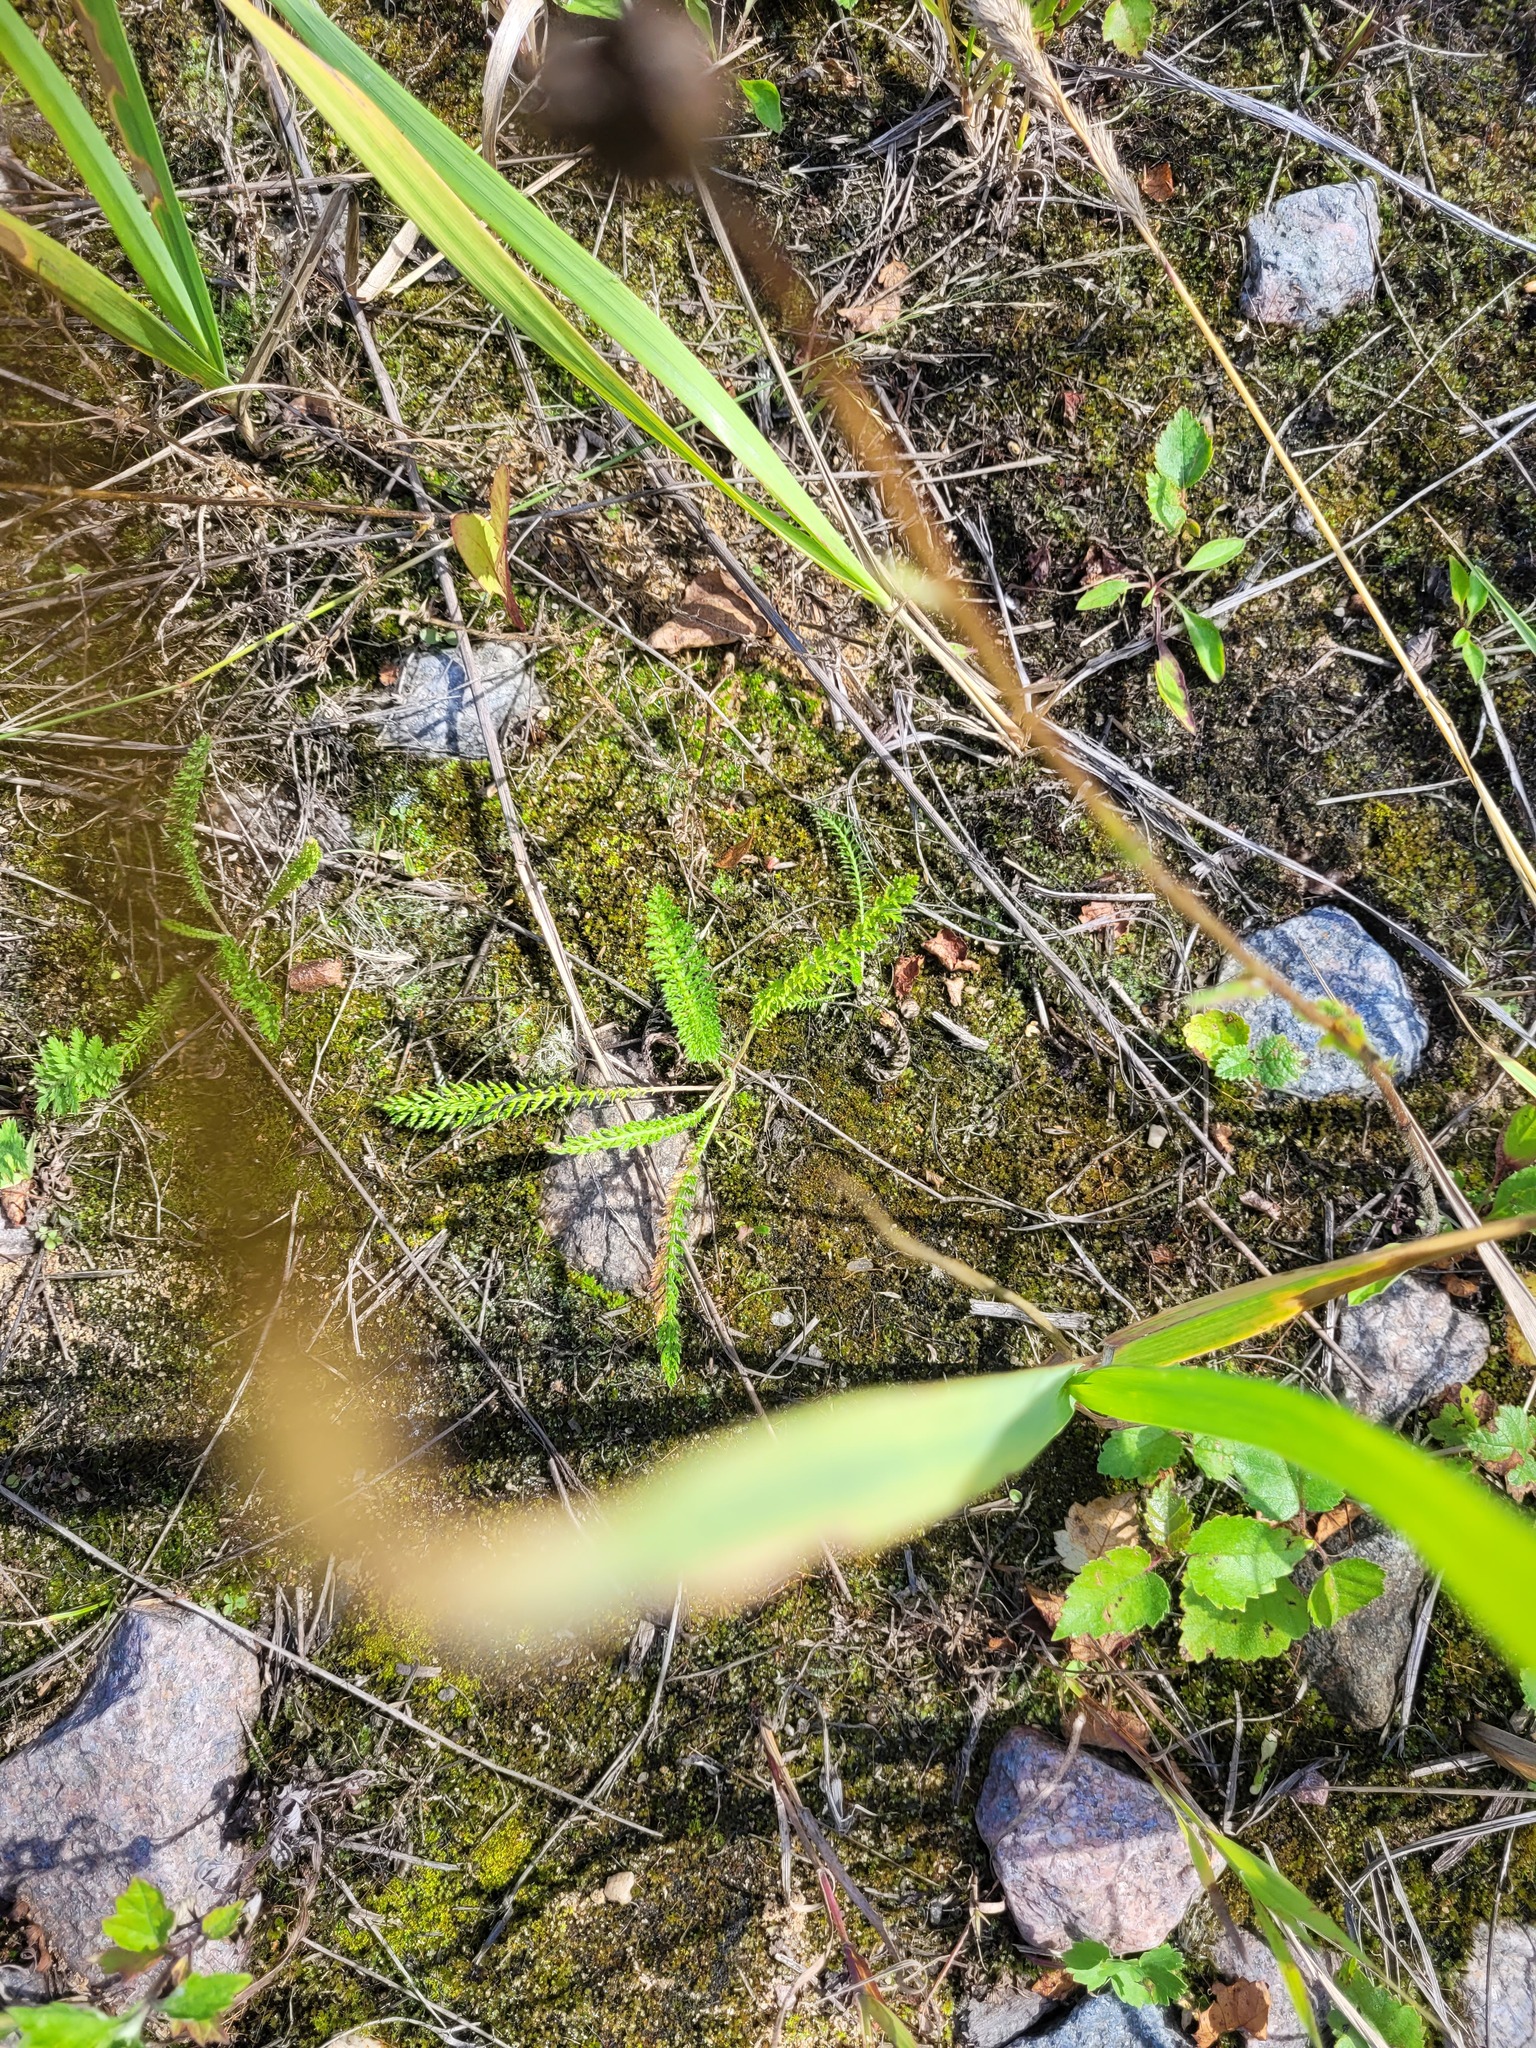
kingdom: Plantae
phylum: Tracheophyta
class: Magnoliopsida
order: Asterales
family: Asteraceae
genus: Achillea
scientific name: Achillea millefolium
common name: Yarrow
